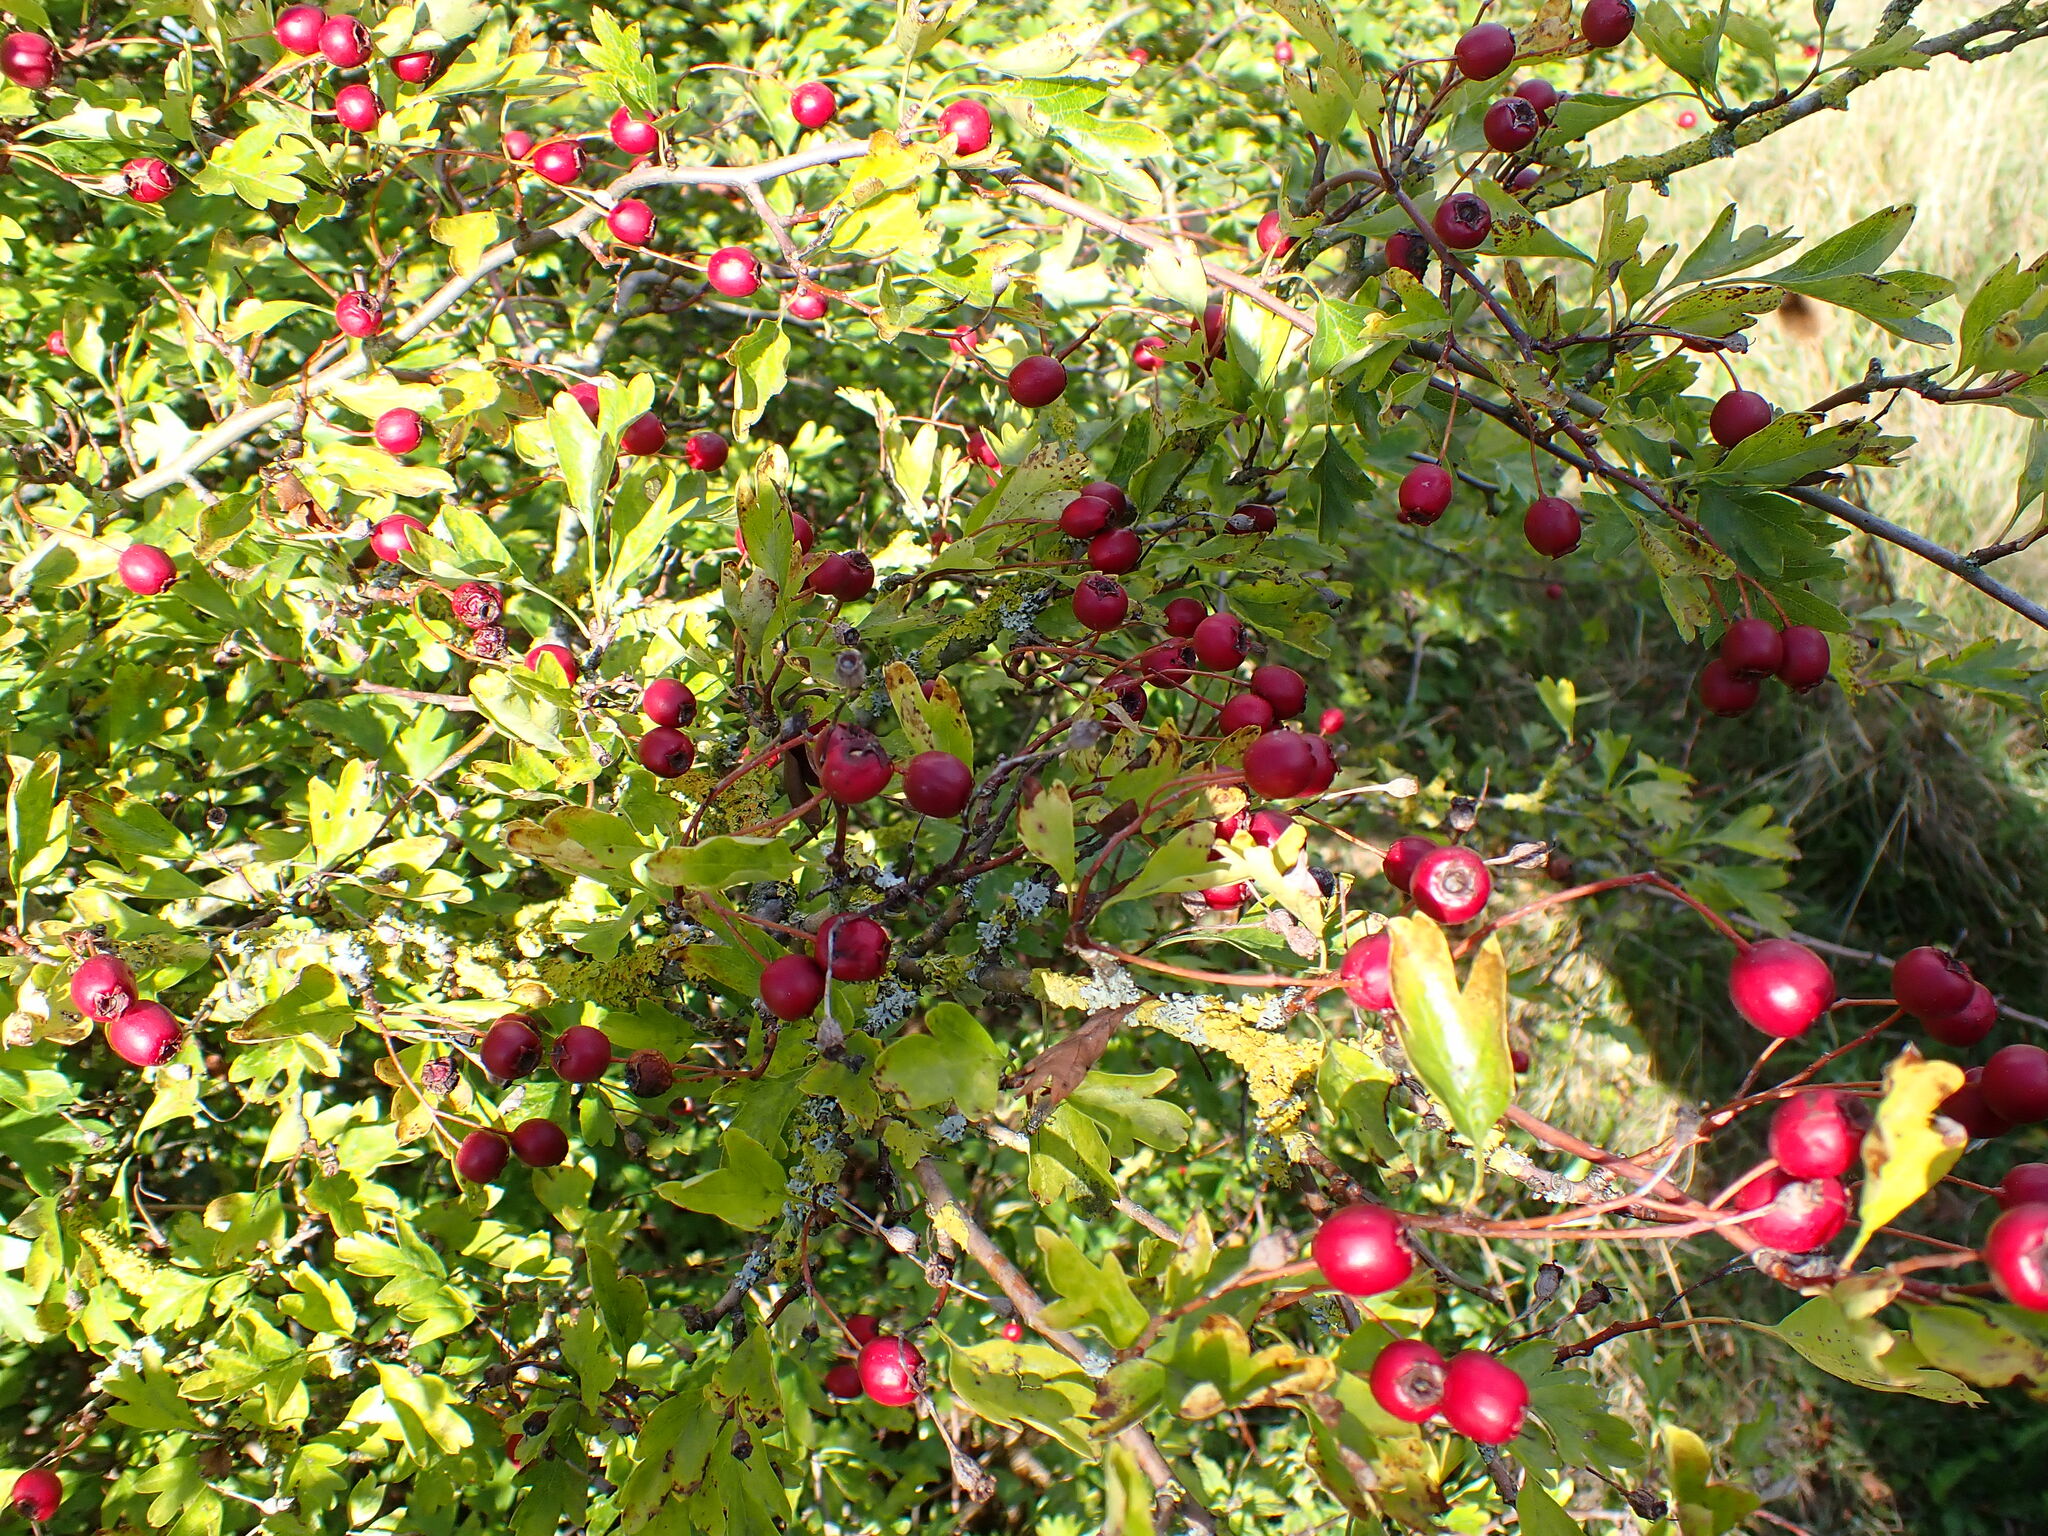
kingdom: Plantae
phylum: Tracheophyta
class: Magnoliopsida
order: Rosales
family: Rosaceae
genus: Crataegus
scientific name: Crataegus monogyna
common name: Hawthorn
